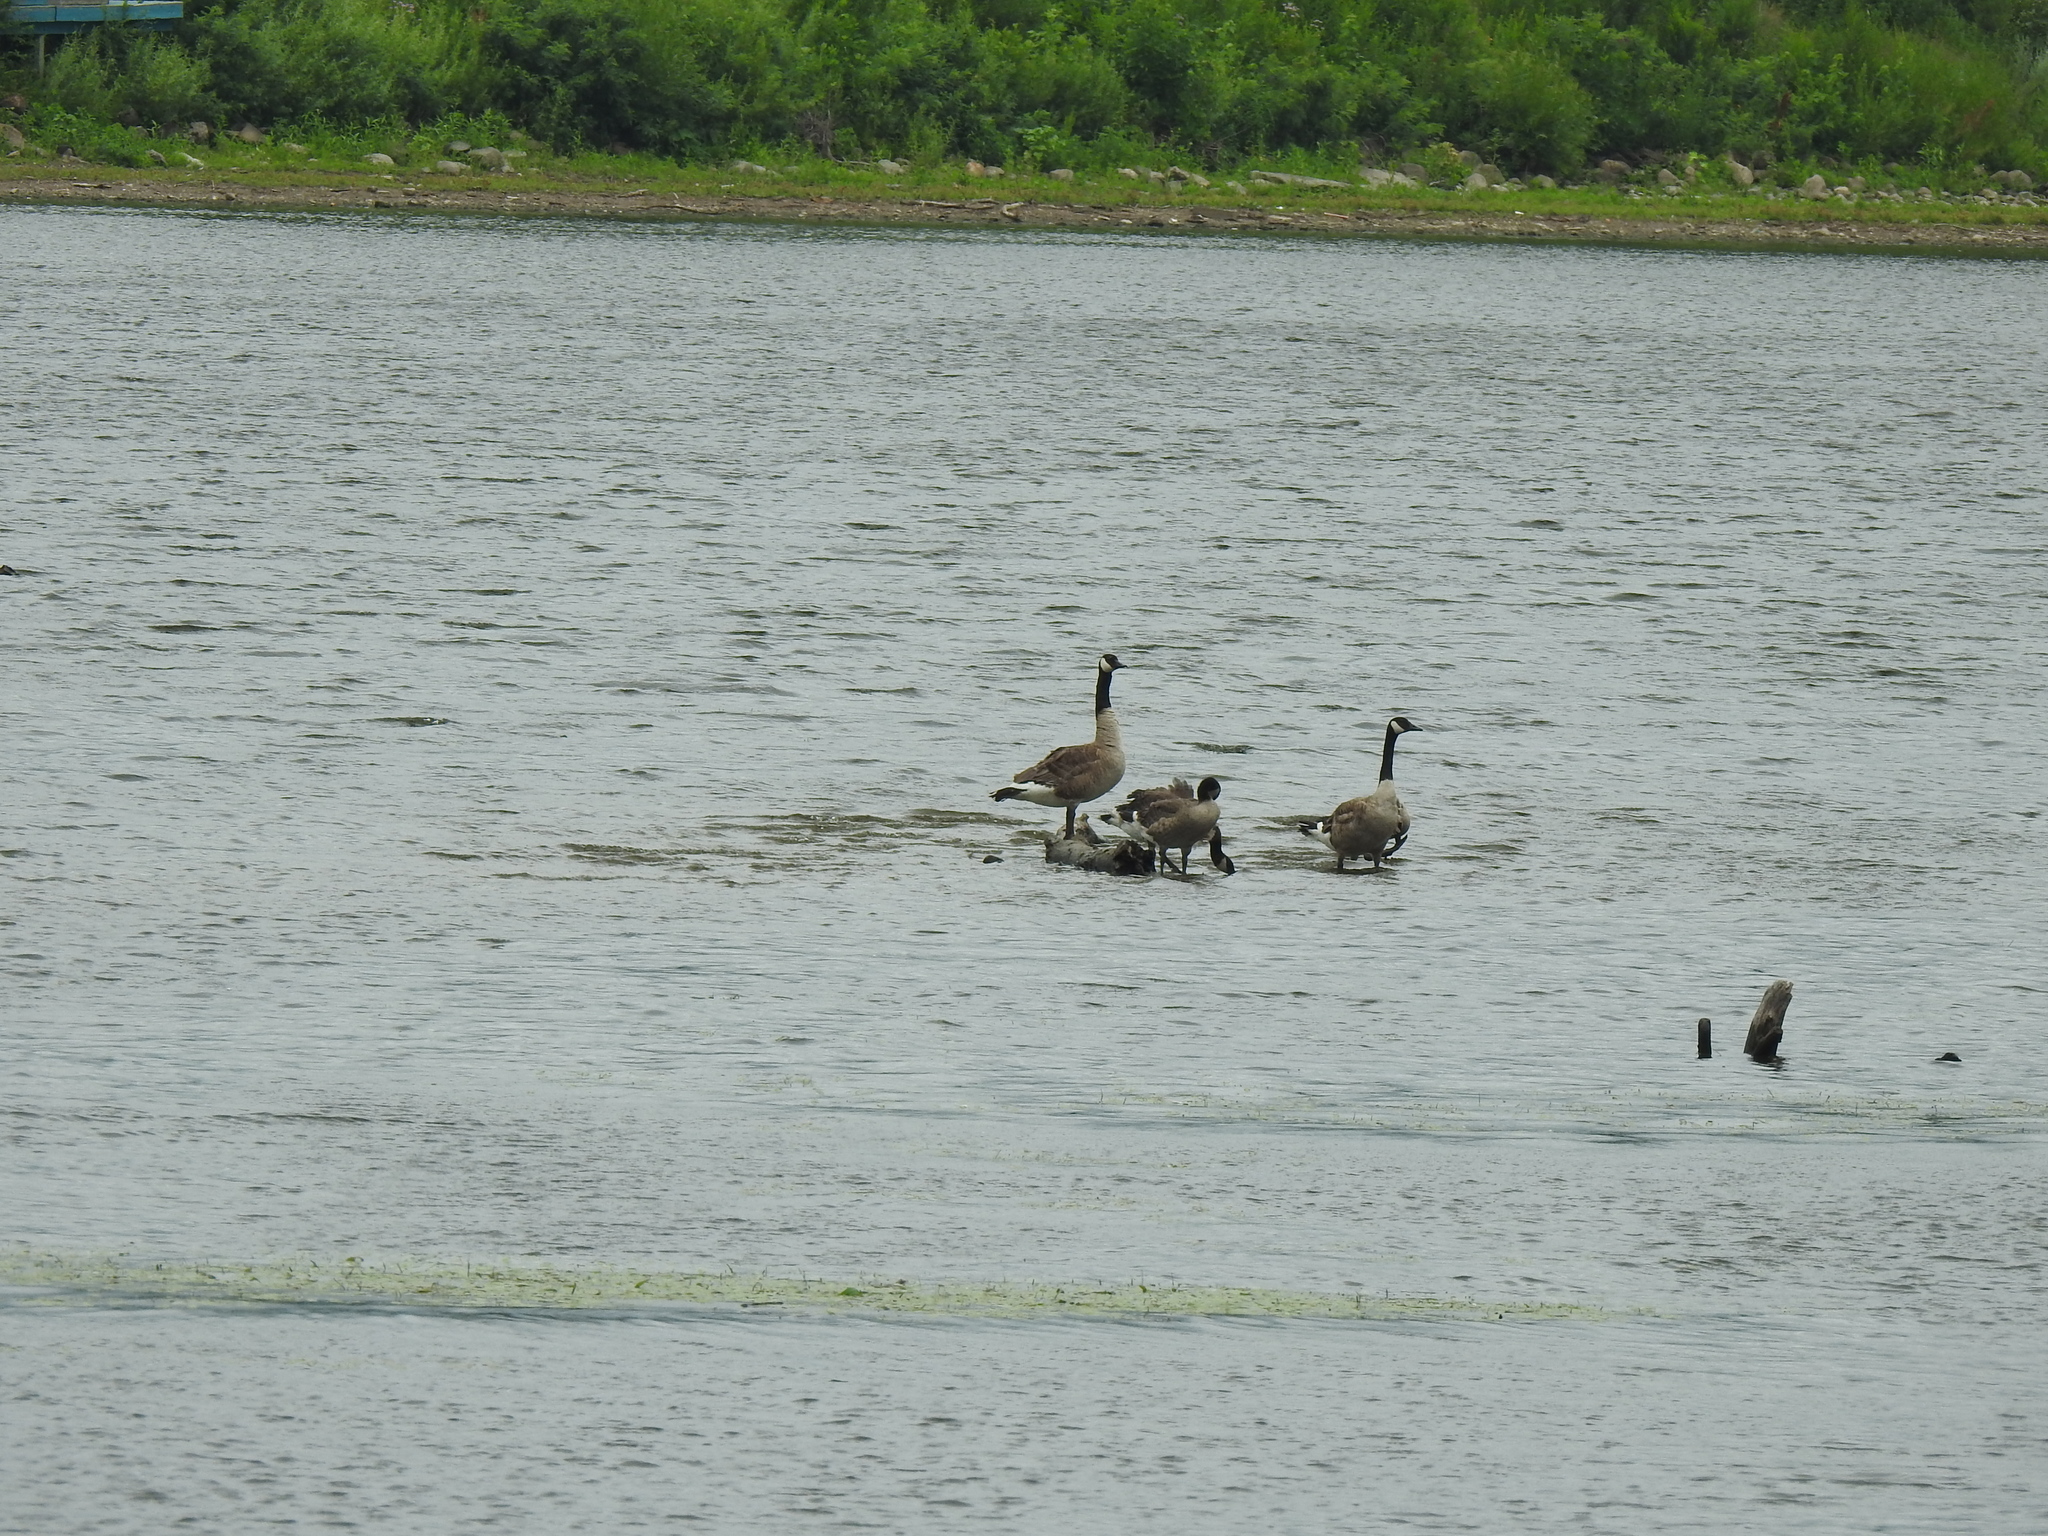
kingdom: Animalia
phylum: Chordata
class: Aves
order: Anseriformes
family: Anatidae
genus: Branta
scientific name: Branta canadensis
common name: Canada goose
